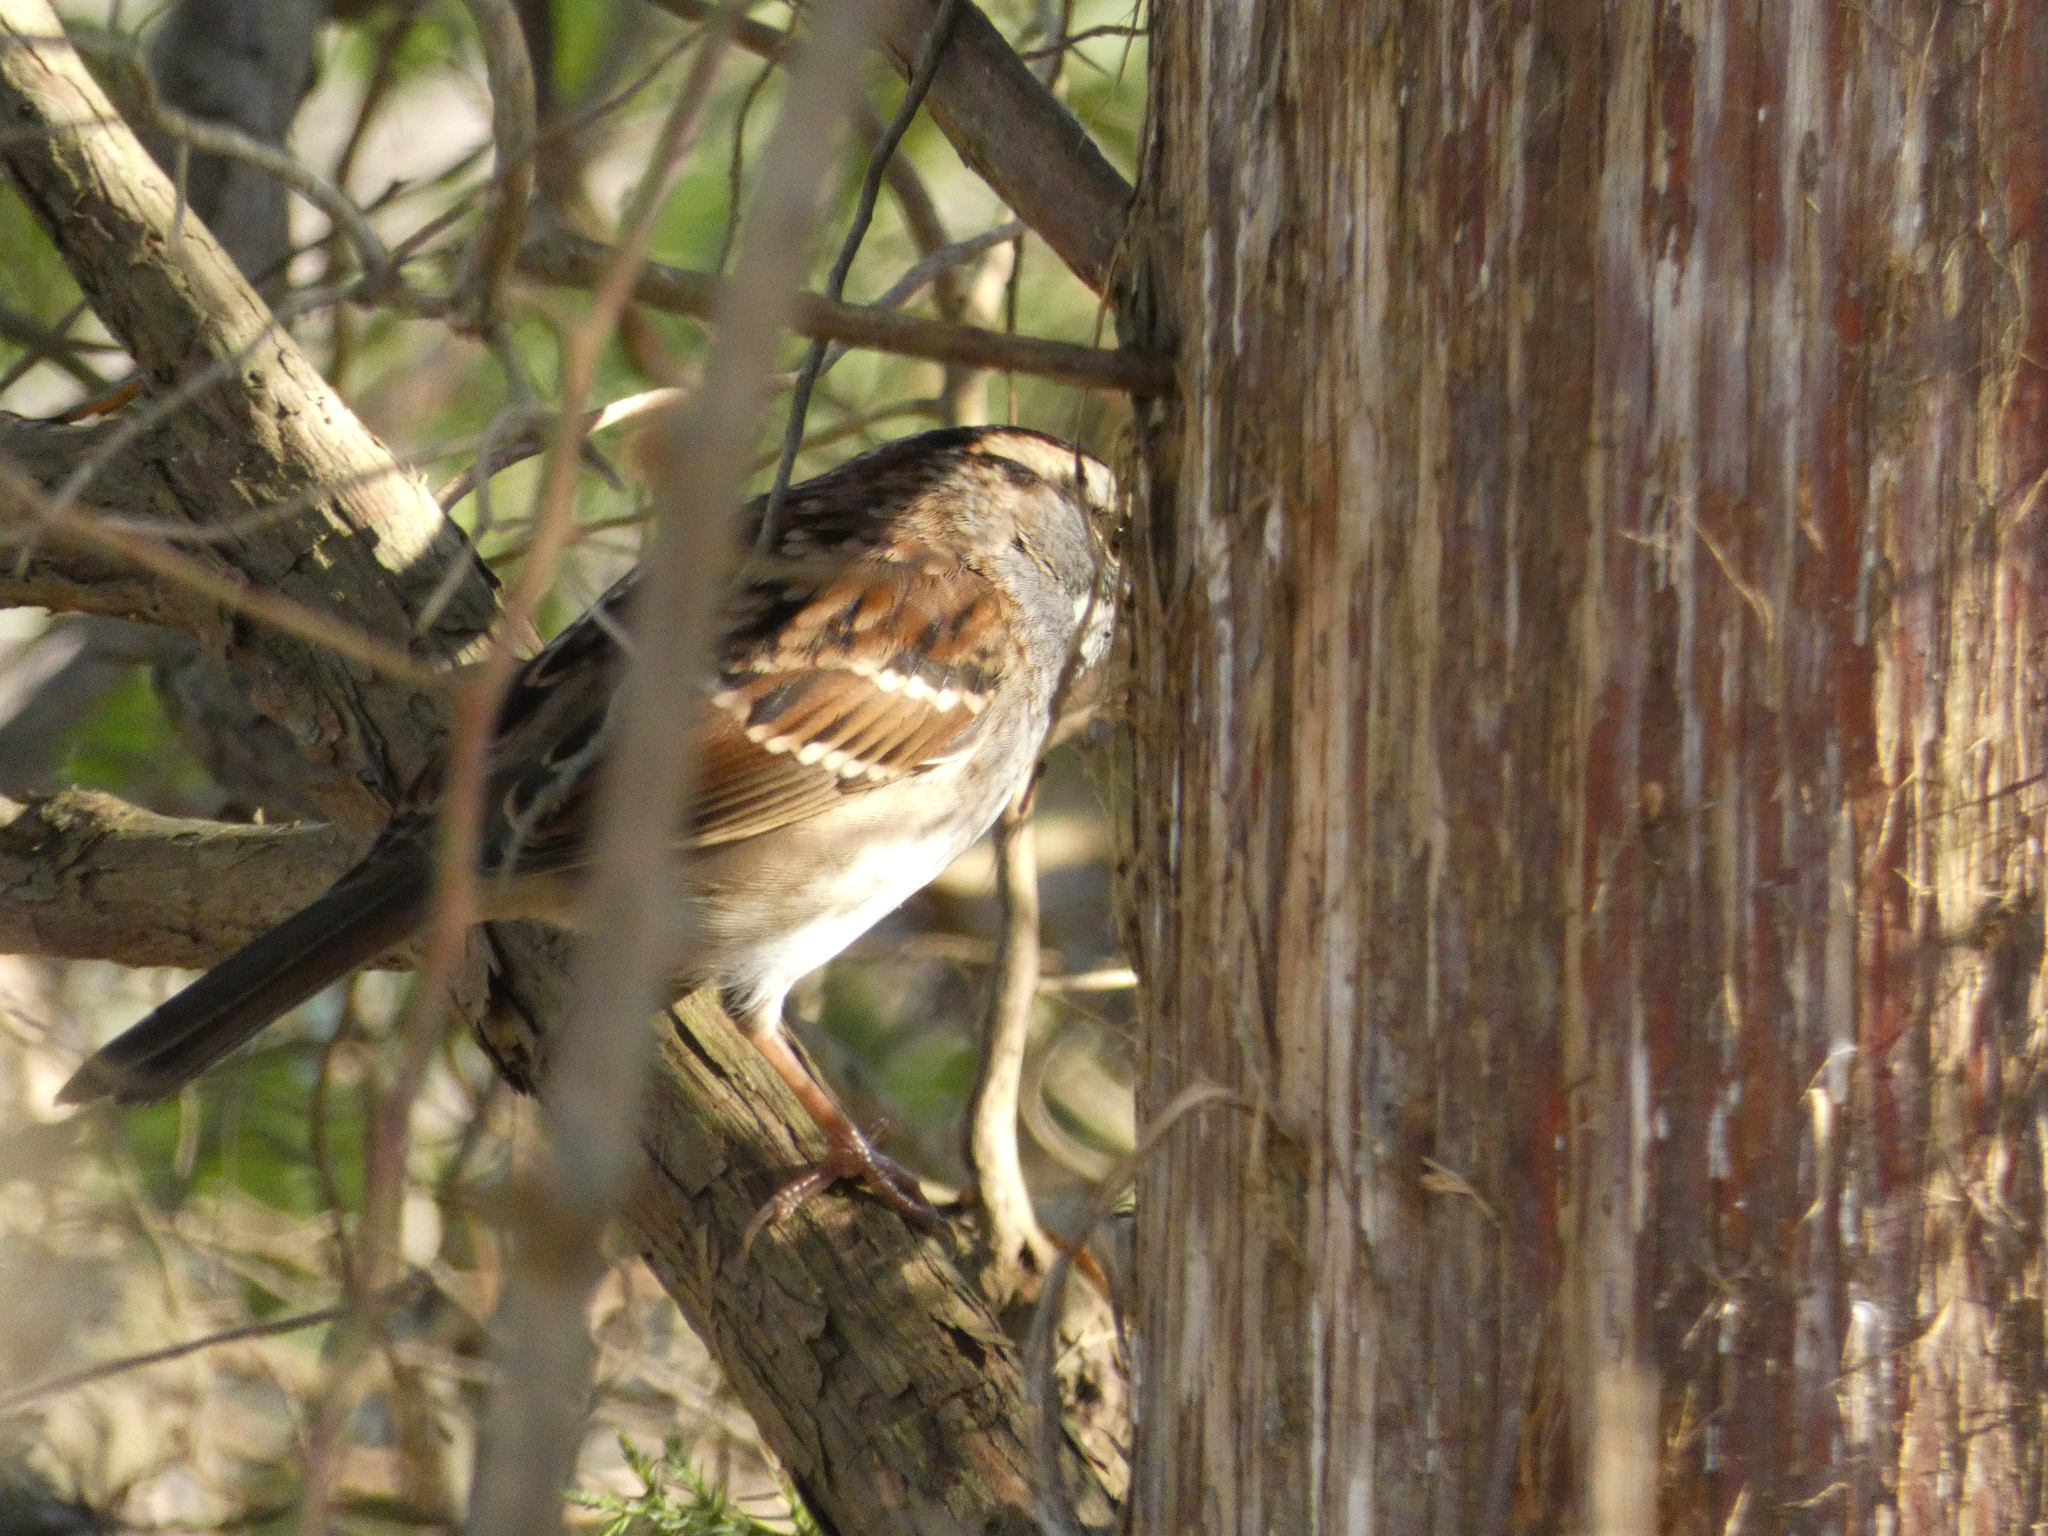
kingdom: Animalia
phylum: Chordata
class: Aves
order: Passeriformes
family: Passerellidae
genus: Zonotrichia
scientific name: Zonotrichia albicollis
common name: White-throated sparrow
